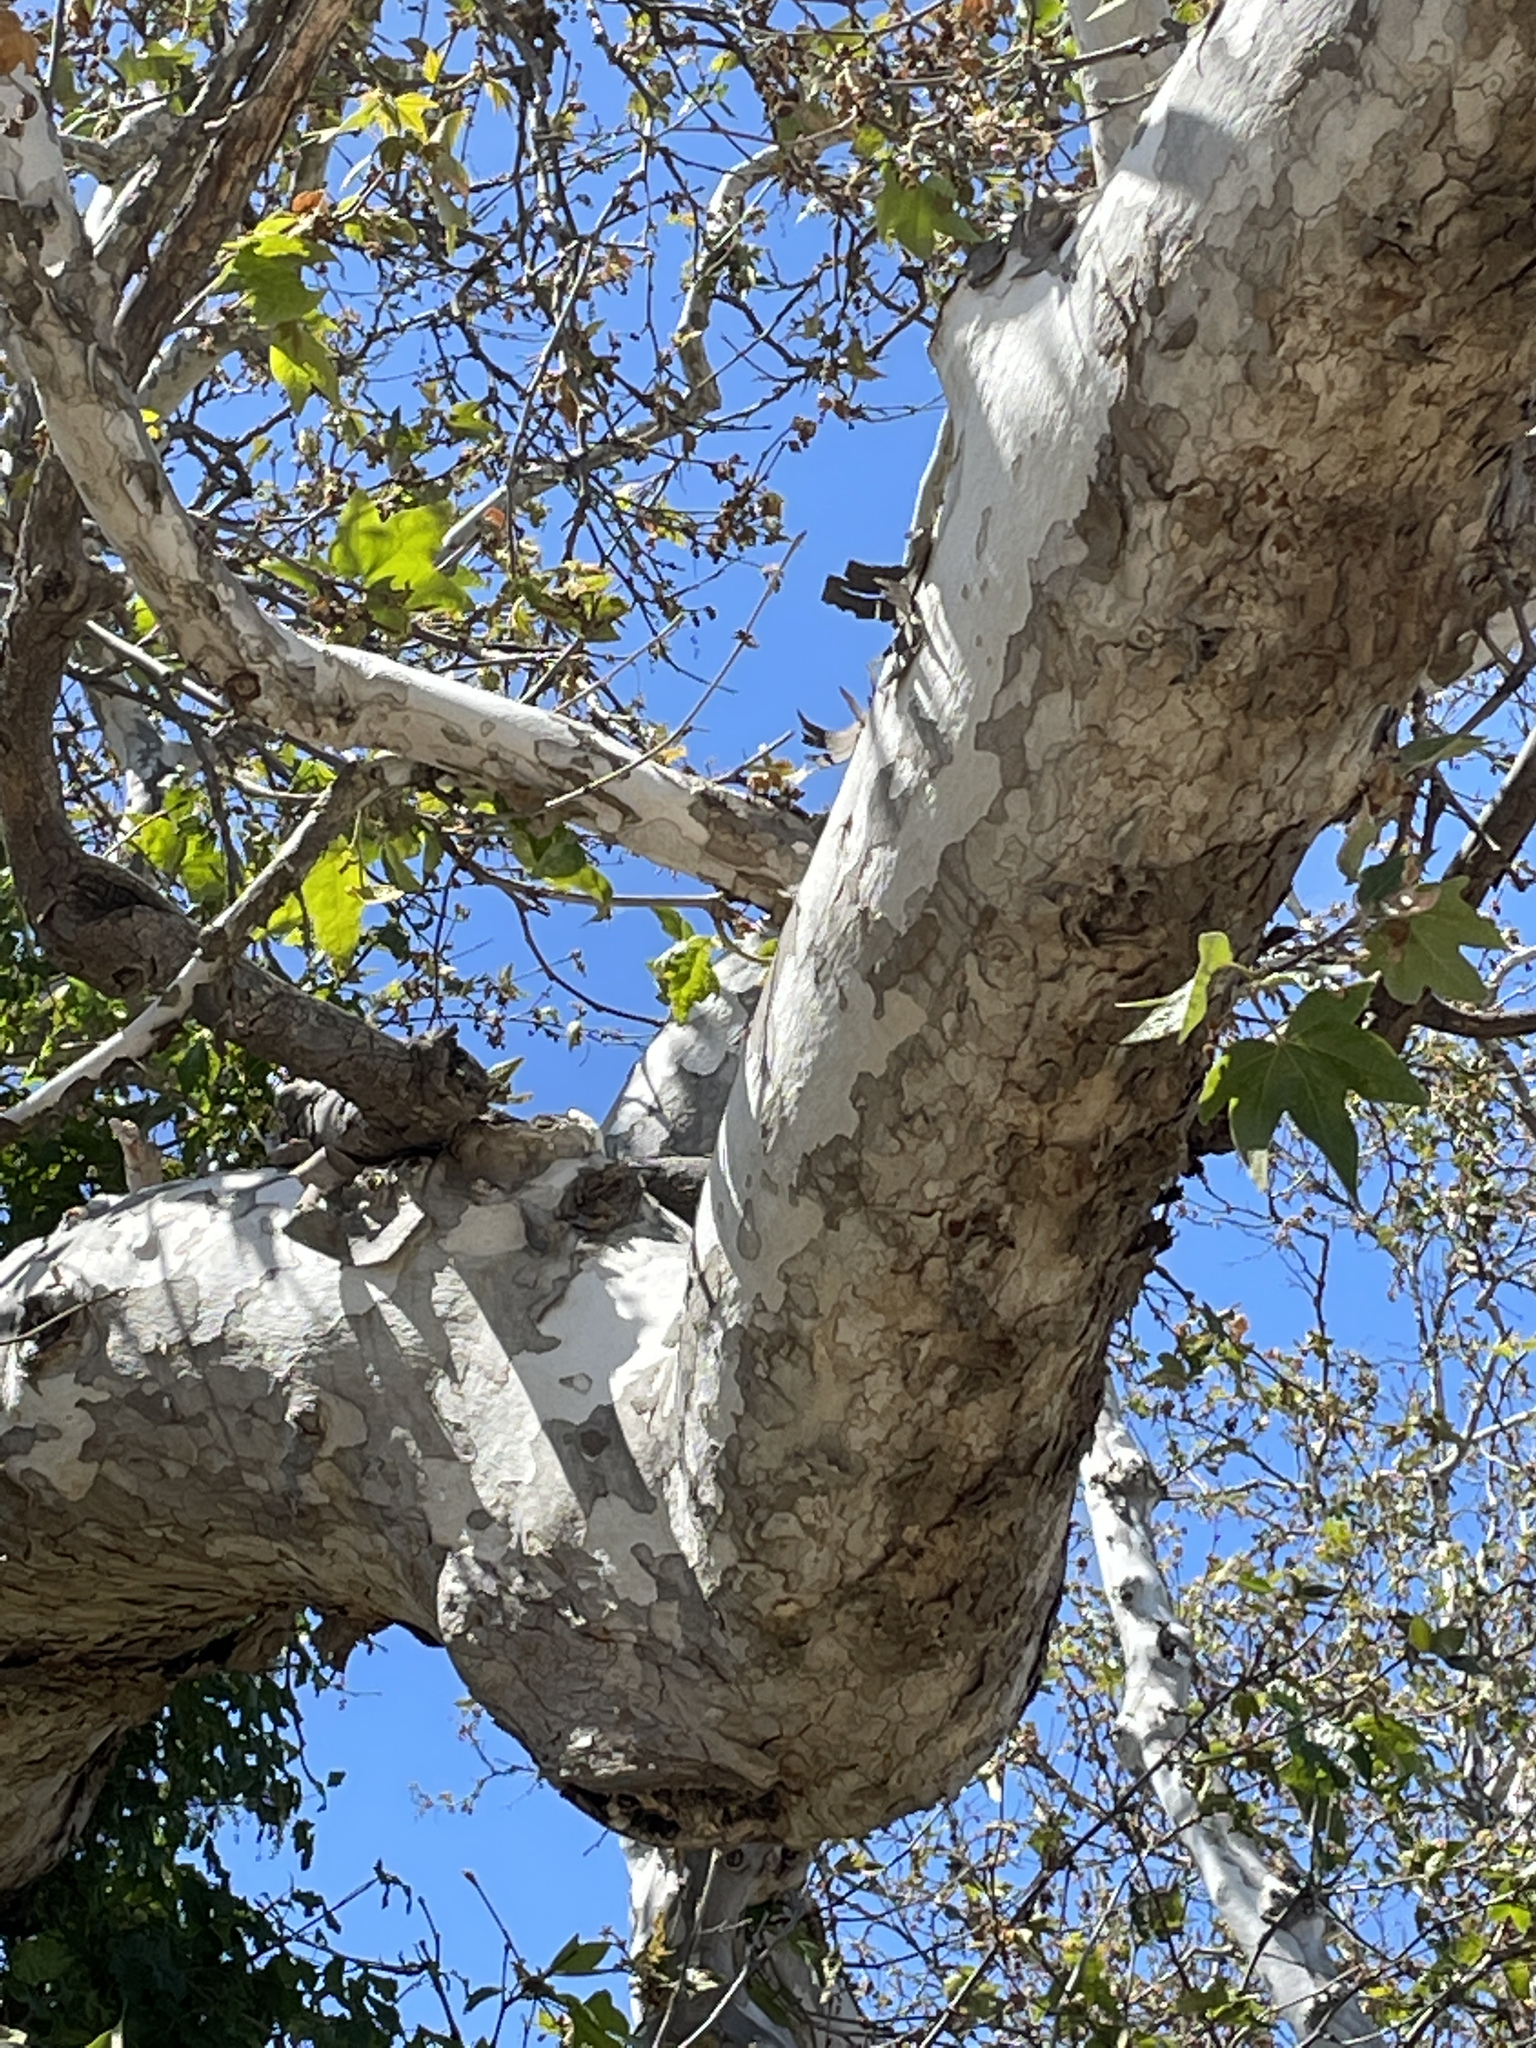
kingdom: Plantae
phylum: Tracheophyta
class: Magnoliopsida
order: Proteales
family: Platanaceae
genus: Platanus
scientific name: Platanus racemosa
